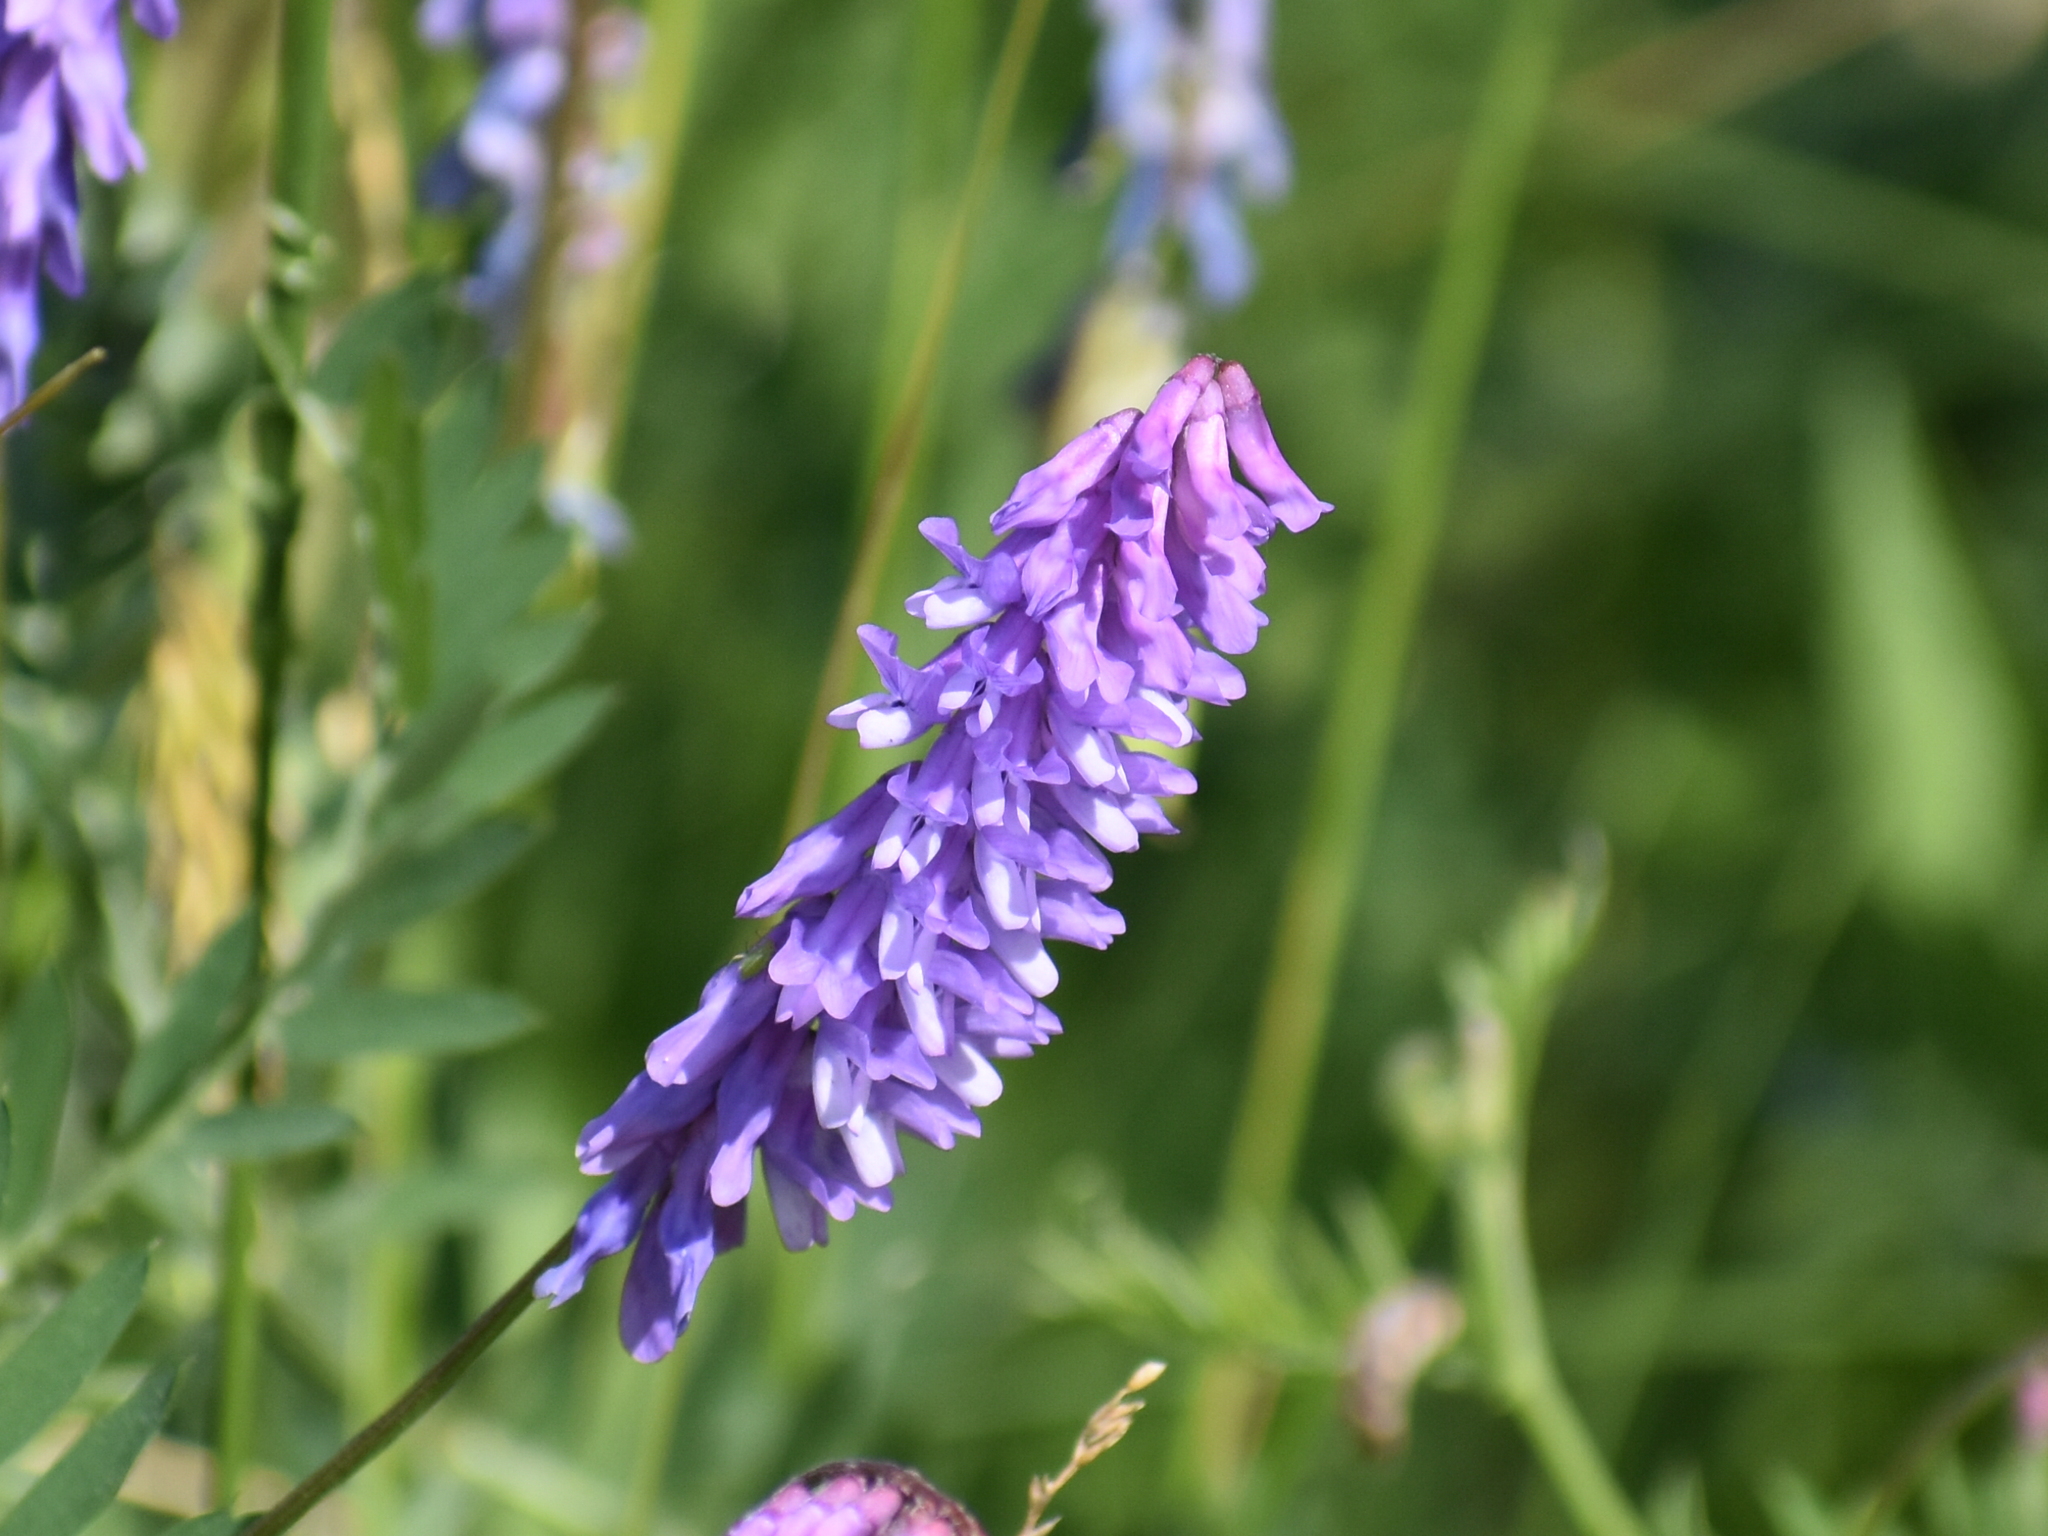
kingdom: Plantae
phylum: Tracheophyta
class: Magnoliopsida
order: Fabales
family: Fabaceae
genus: Vicia
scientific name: Vicia cracca
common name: Bird vetch
